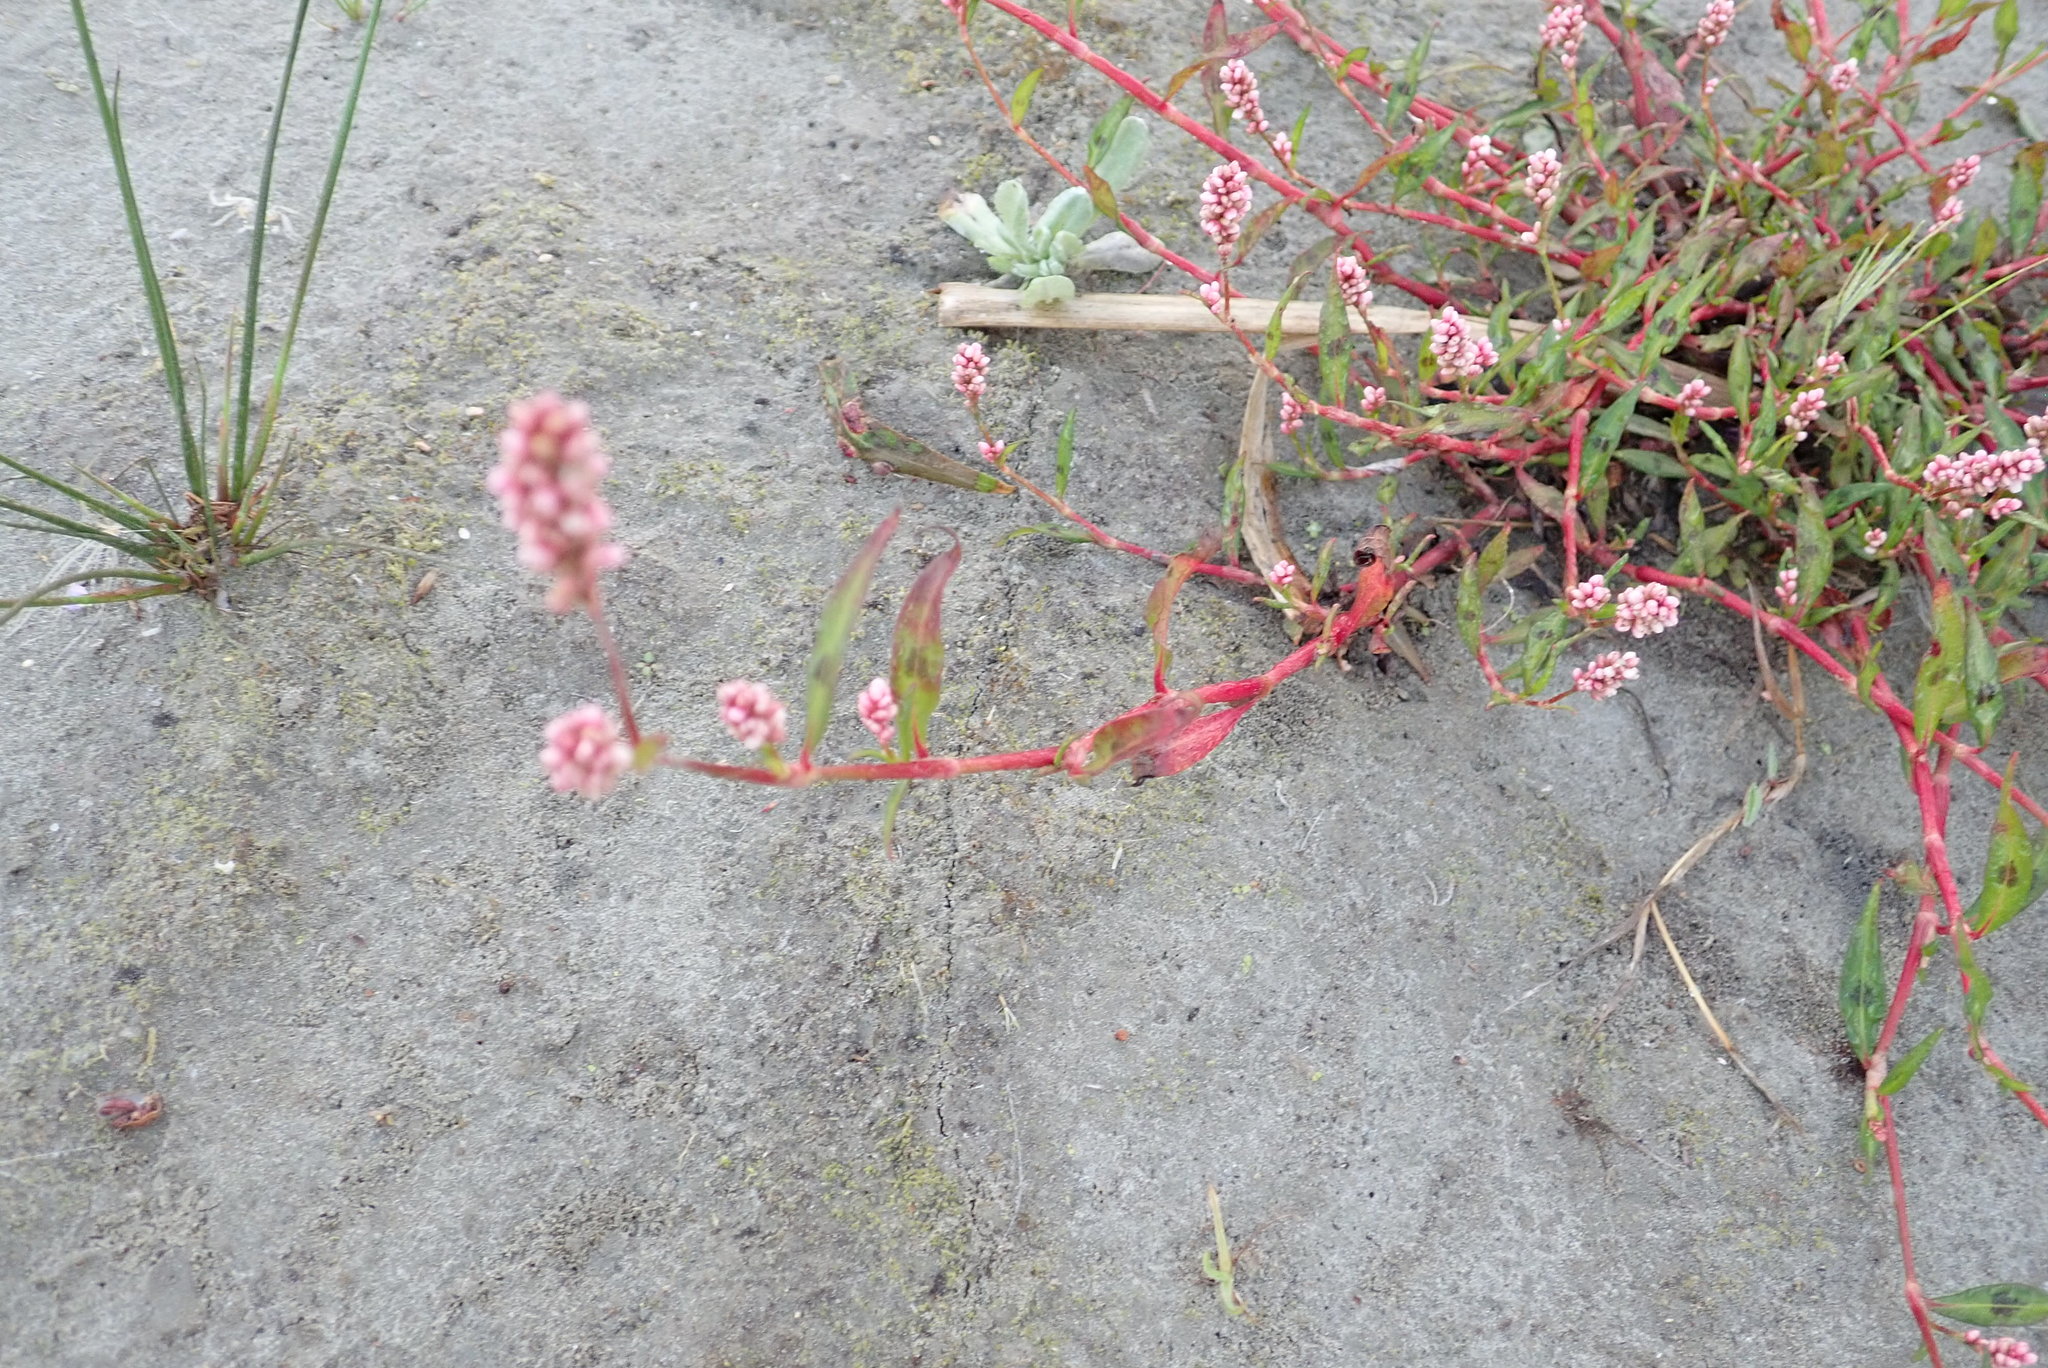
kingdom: Plantae
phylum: Tracheophyta
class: Magnoliopsida
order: Caryophyllales
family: Polygonaceae
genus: Persicaria
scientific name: Persicaria maculosa
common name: Redshank
